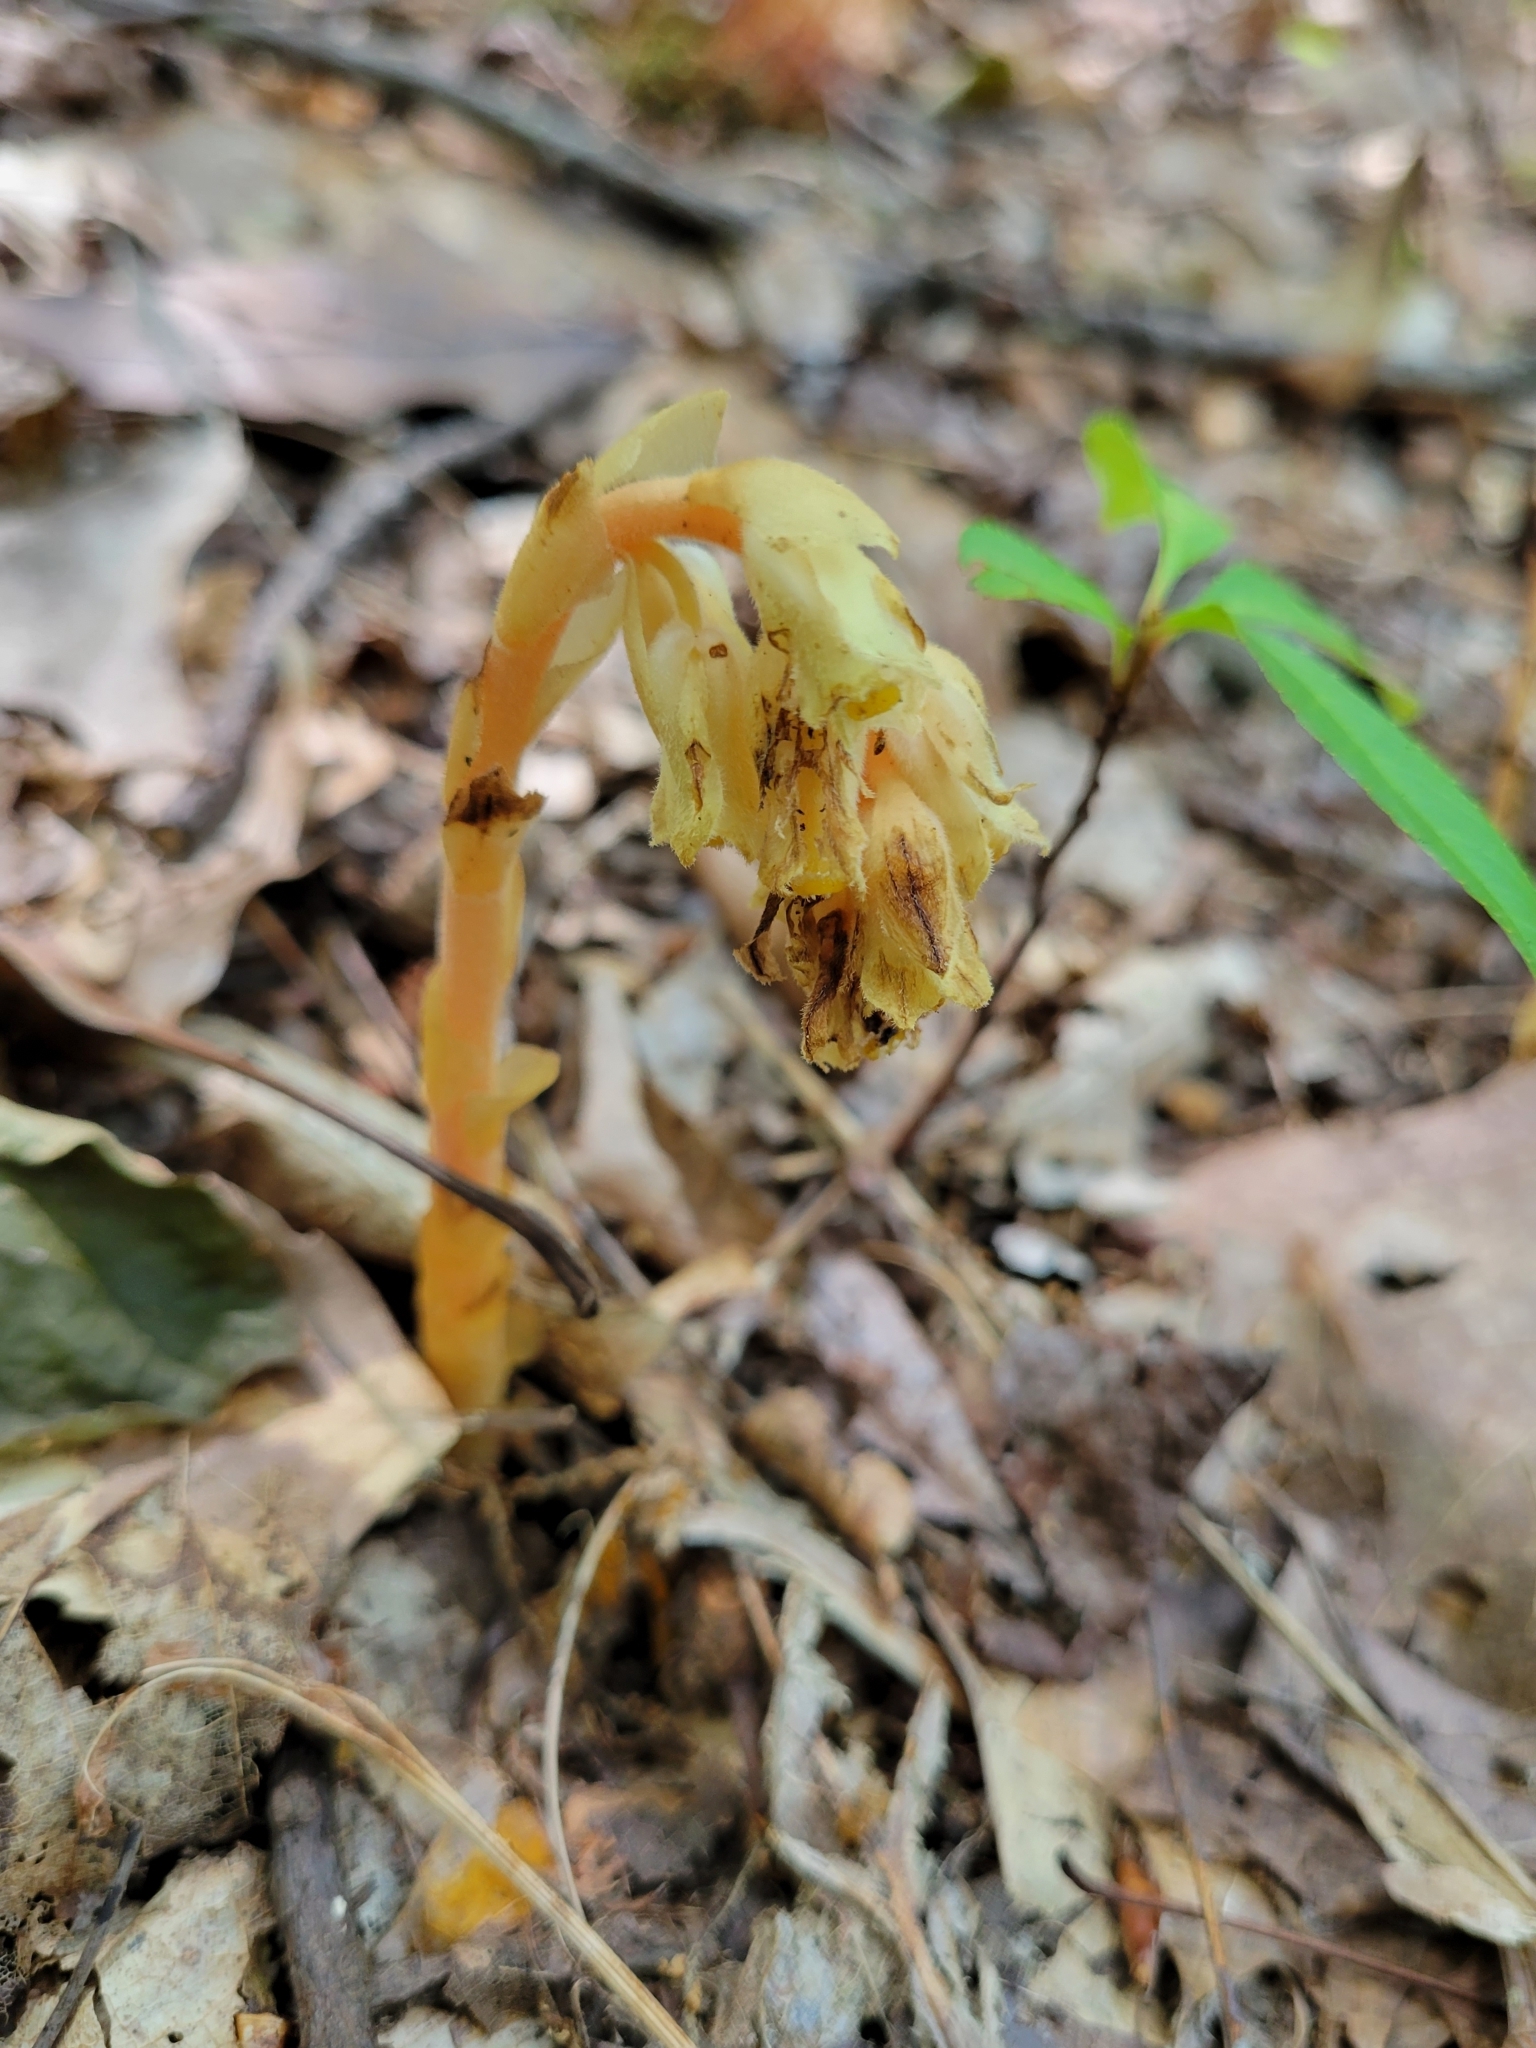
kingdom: Plantae
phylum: Tracheophyta
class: Magnoliopsida
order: Ericales
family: Ericaceae
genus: Hypopitys
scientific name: Hypopitys monotropa
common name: Yellow bird's-nest
